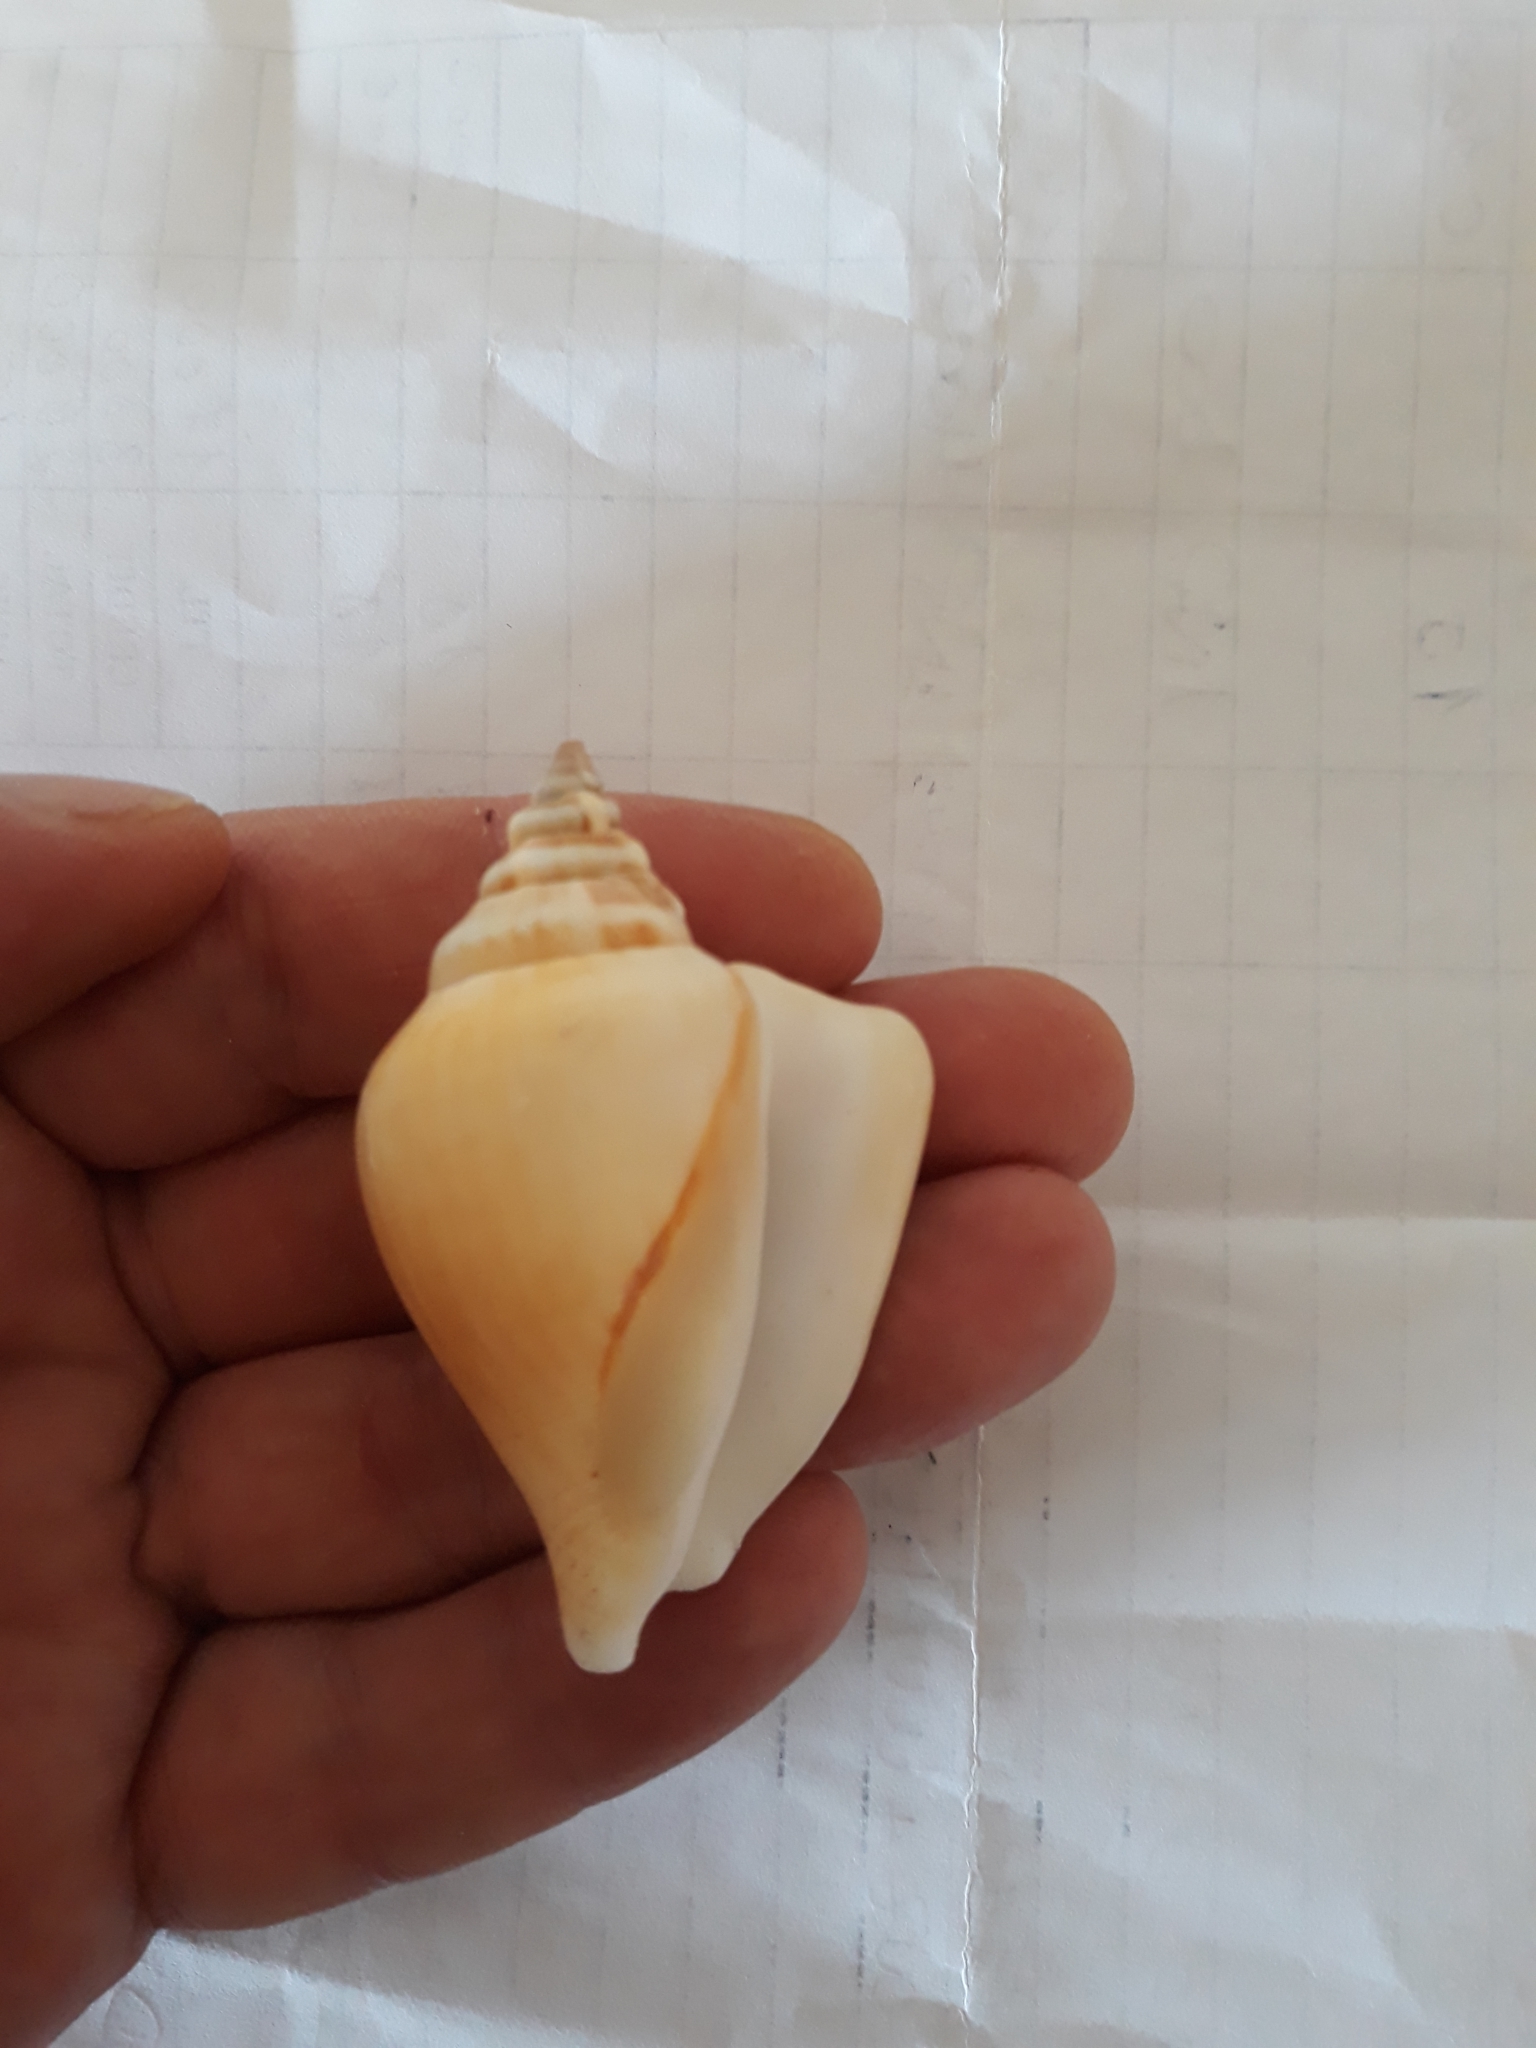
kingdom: Animalia
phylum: Mollusca
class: Gastropoda
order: Littorinimorpha
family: Strombidae
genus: Laevistrombus
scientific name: Laevistrombus canarium
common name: Dog conch
